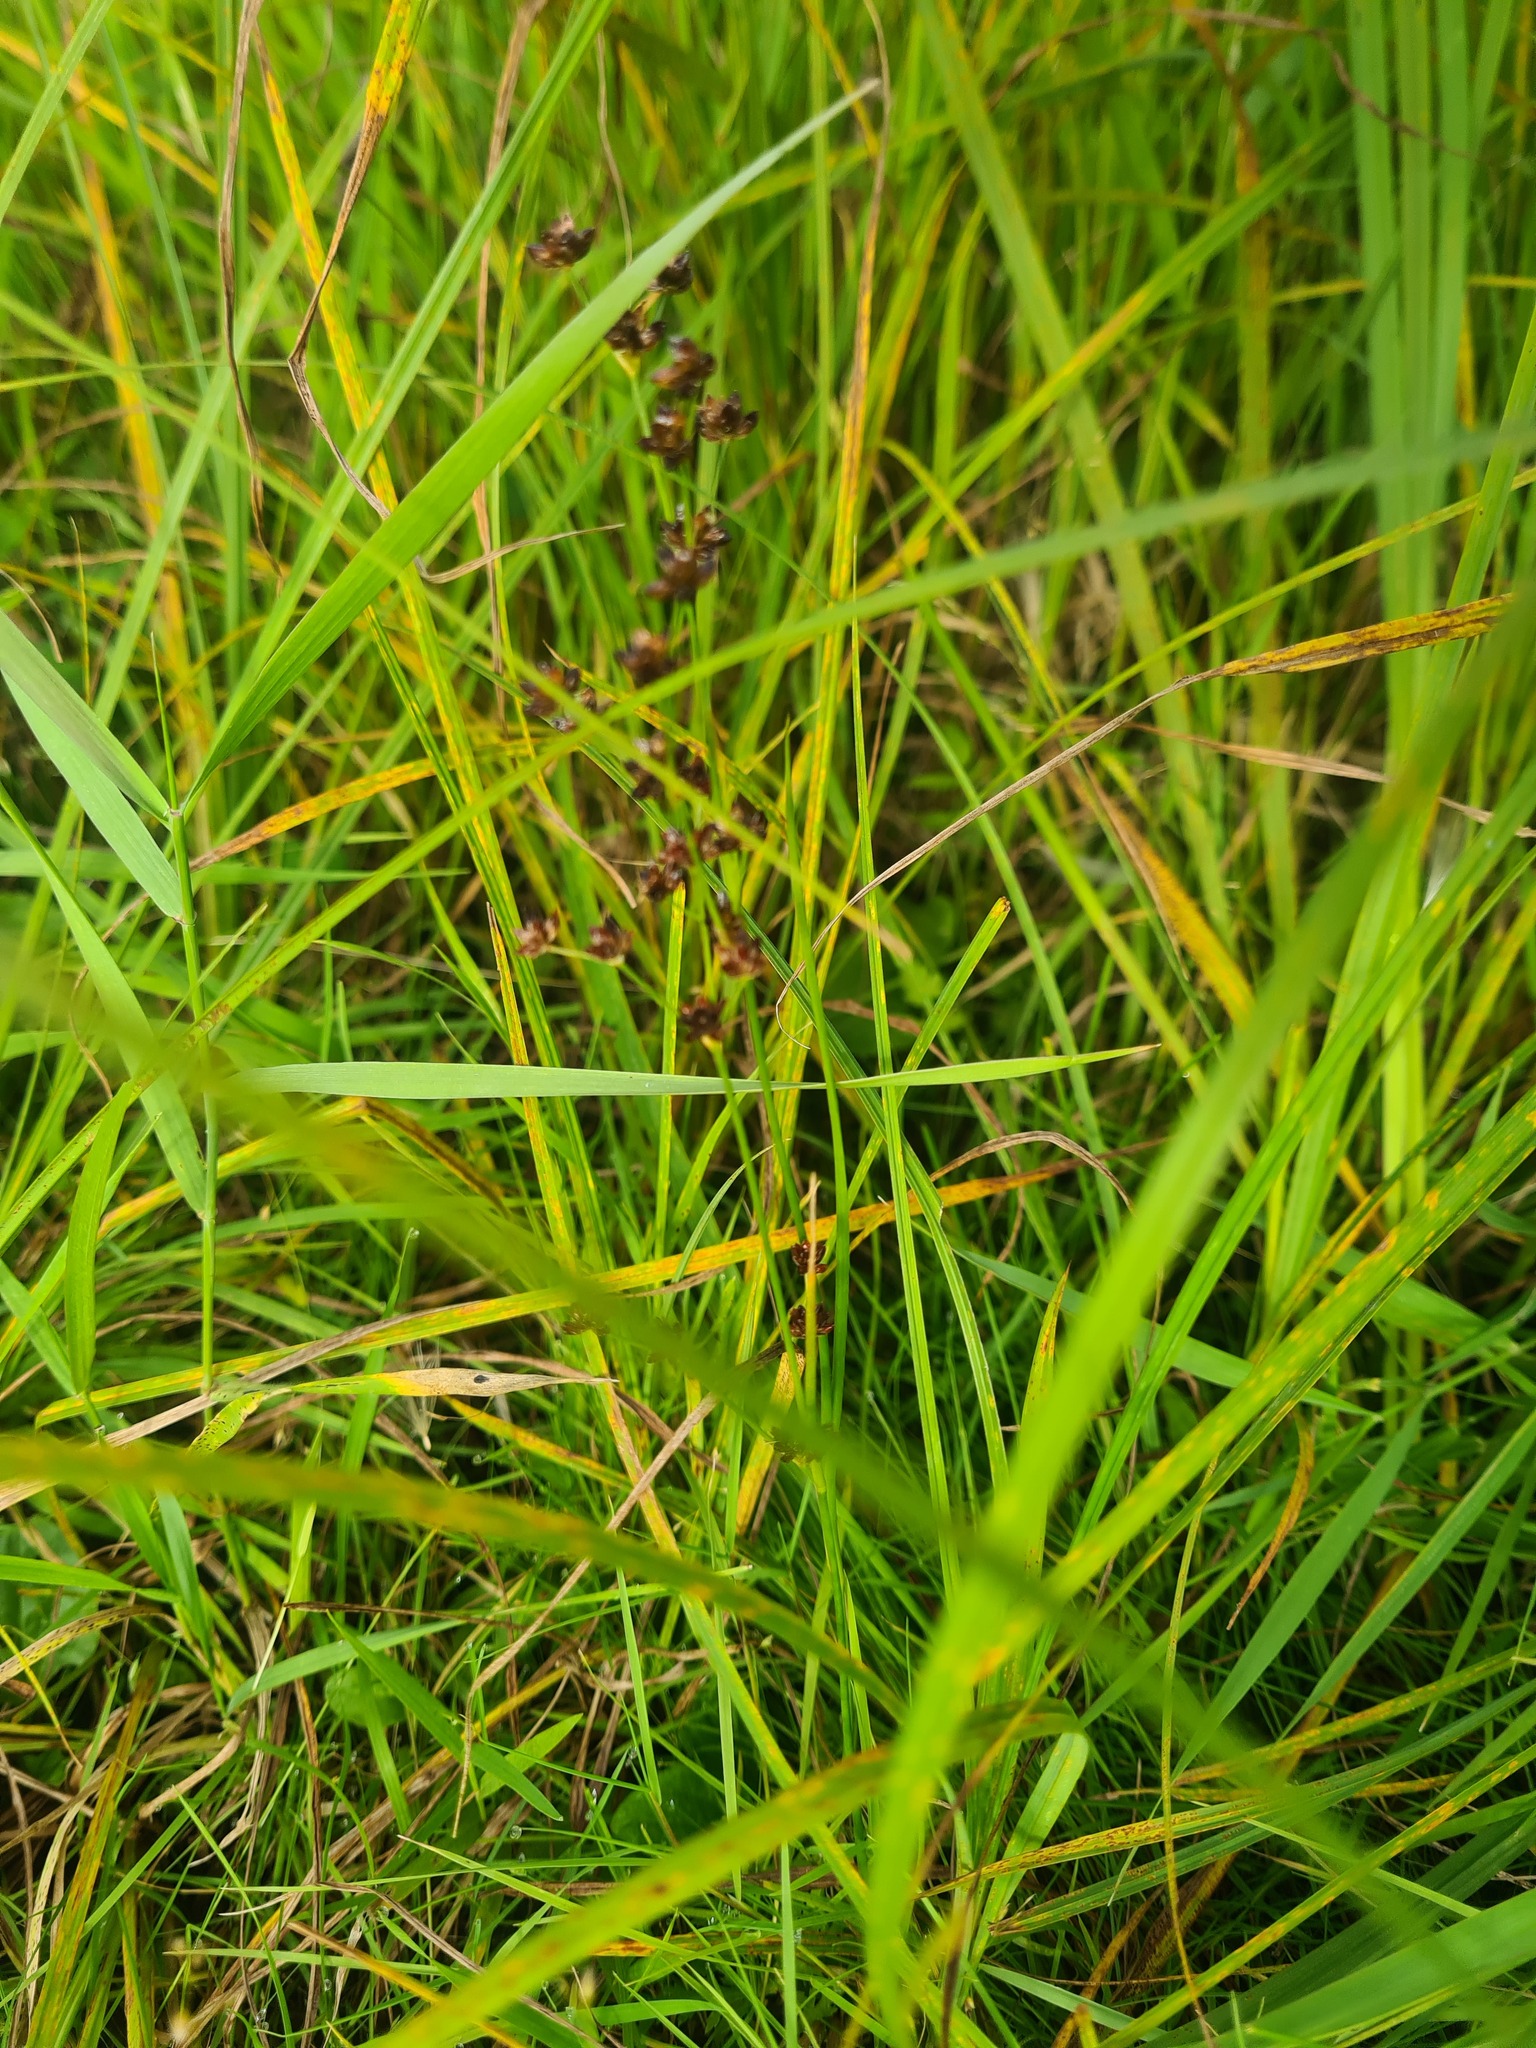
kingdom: Plantae
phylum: Tracheophyta
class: Liliopsida
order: Poales
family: Juncaceae
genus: Juncus
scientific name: Juncus articulatus
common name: Jointed rush
